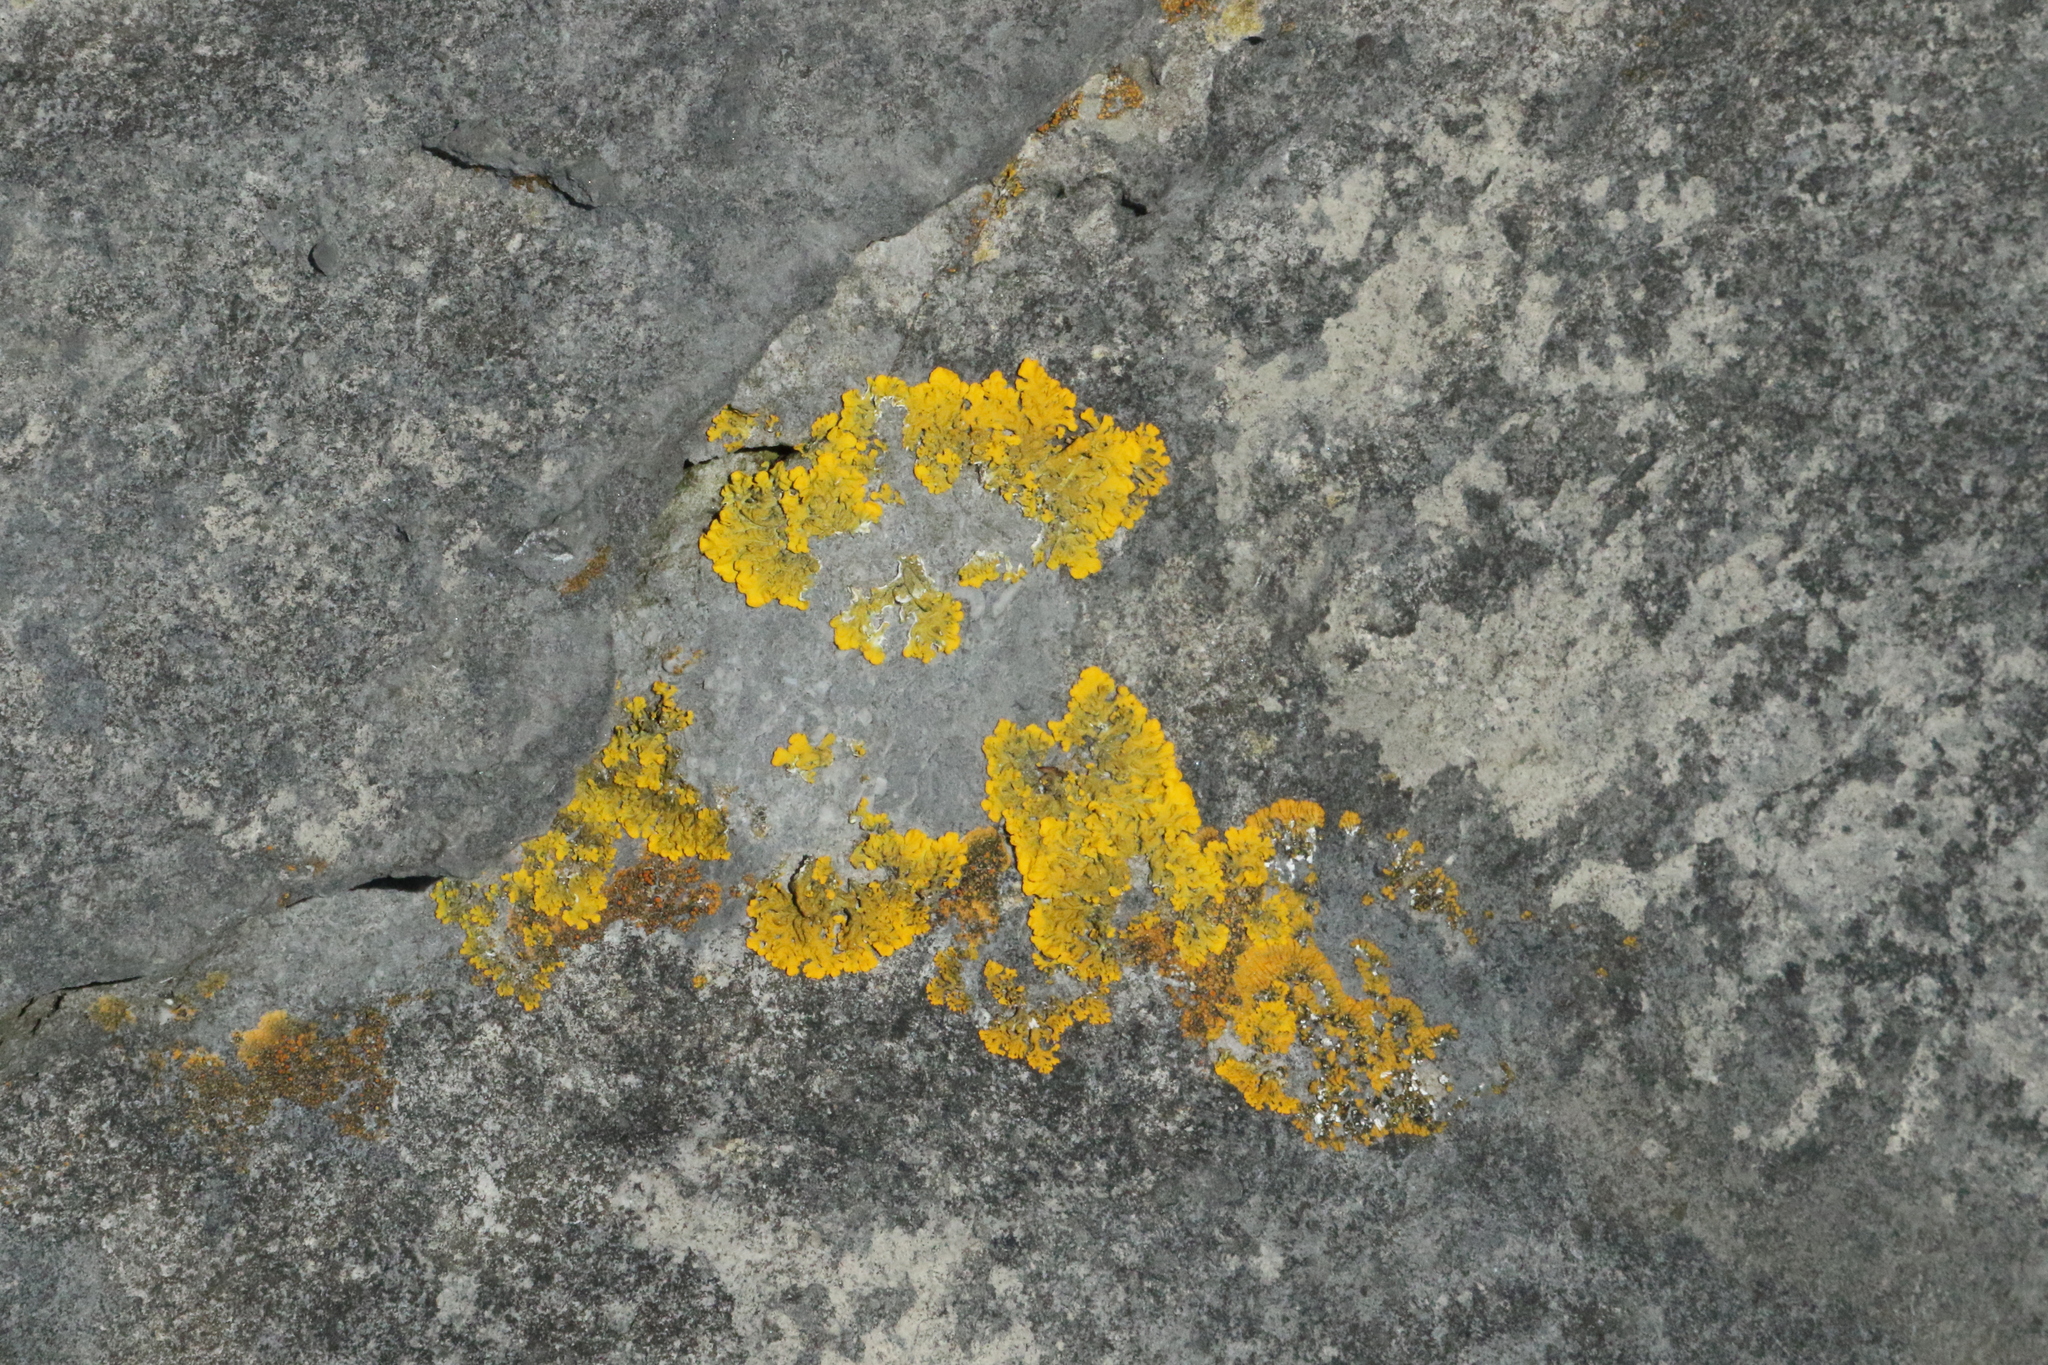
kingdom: Fungi
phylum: Ascomycota
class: Lecanoromycetes
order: Teloschistales
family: Teloschistaceae
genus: Xanthoria
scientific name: Xanthoria aureola
